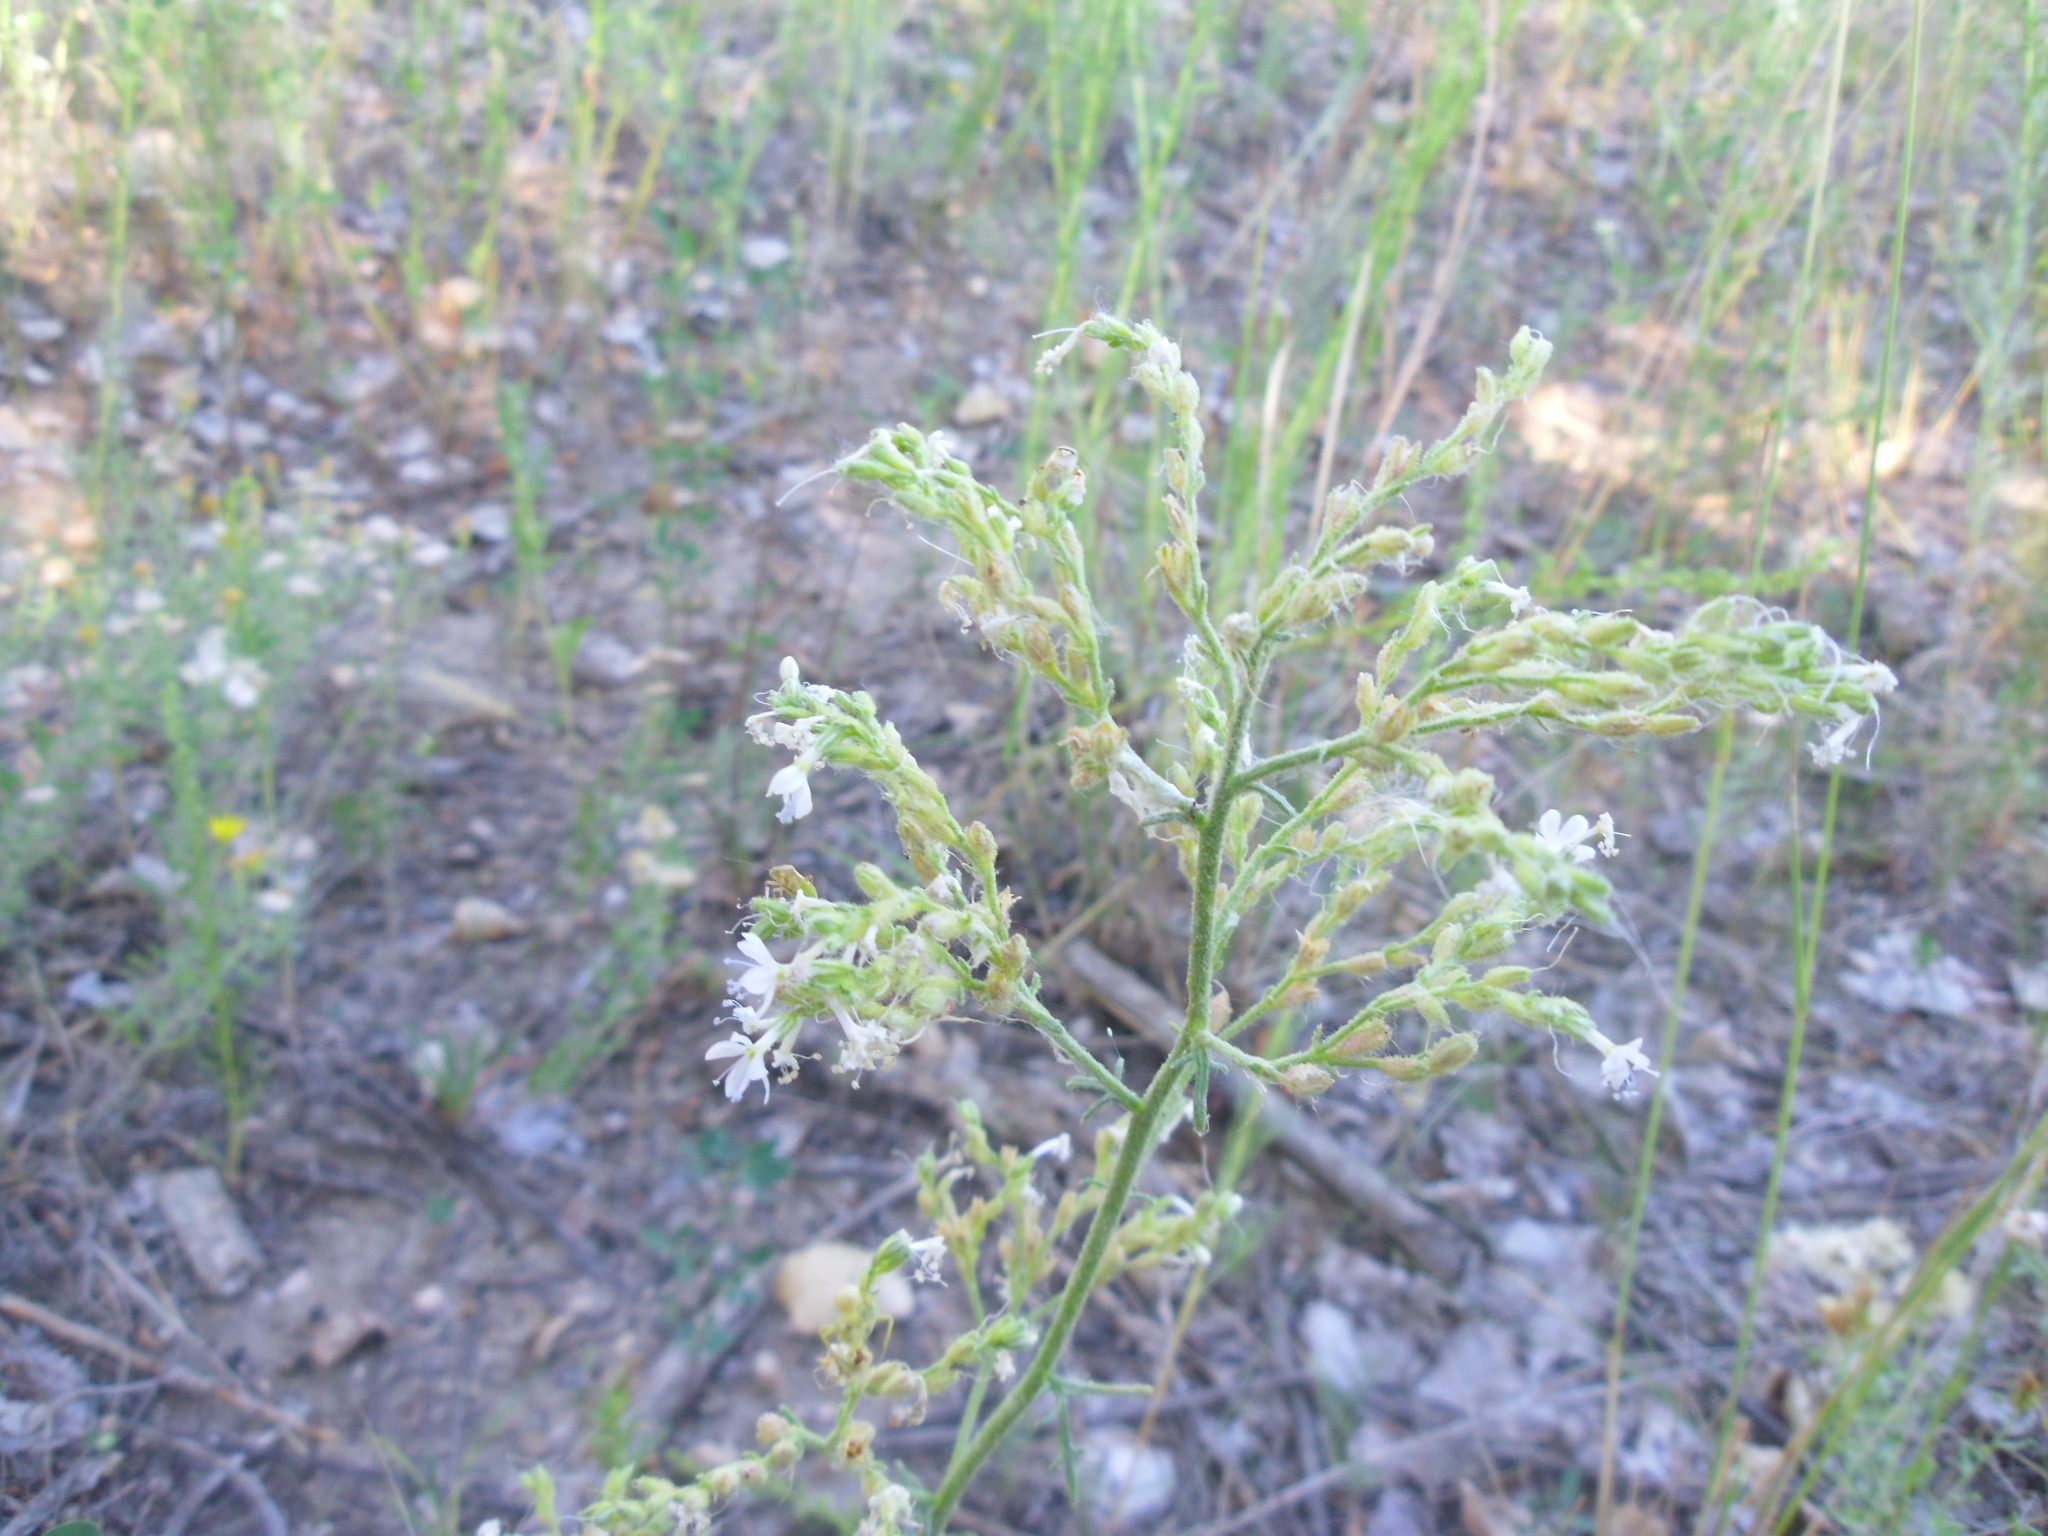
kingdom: Plantae
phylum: Tracheophyta
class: Magnoliopsida
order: Ericales
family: Polemoniaceae
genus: Aliciella
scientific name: Aliciella pinnatifida
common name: Sticky gilia
